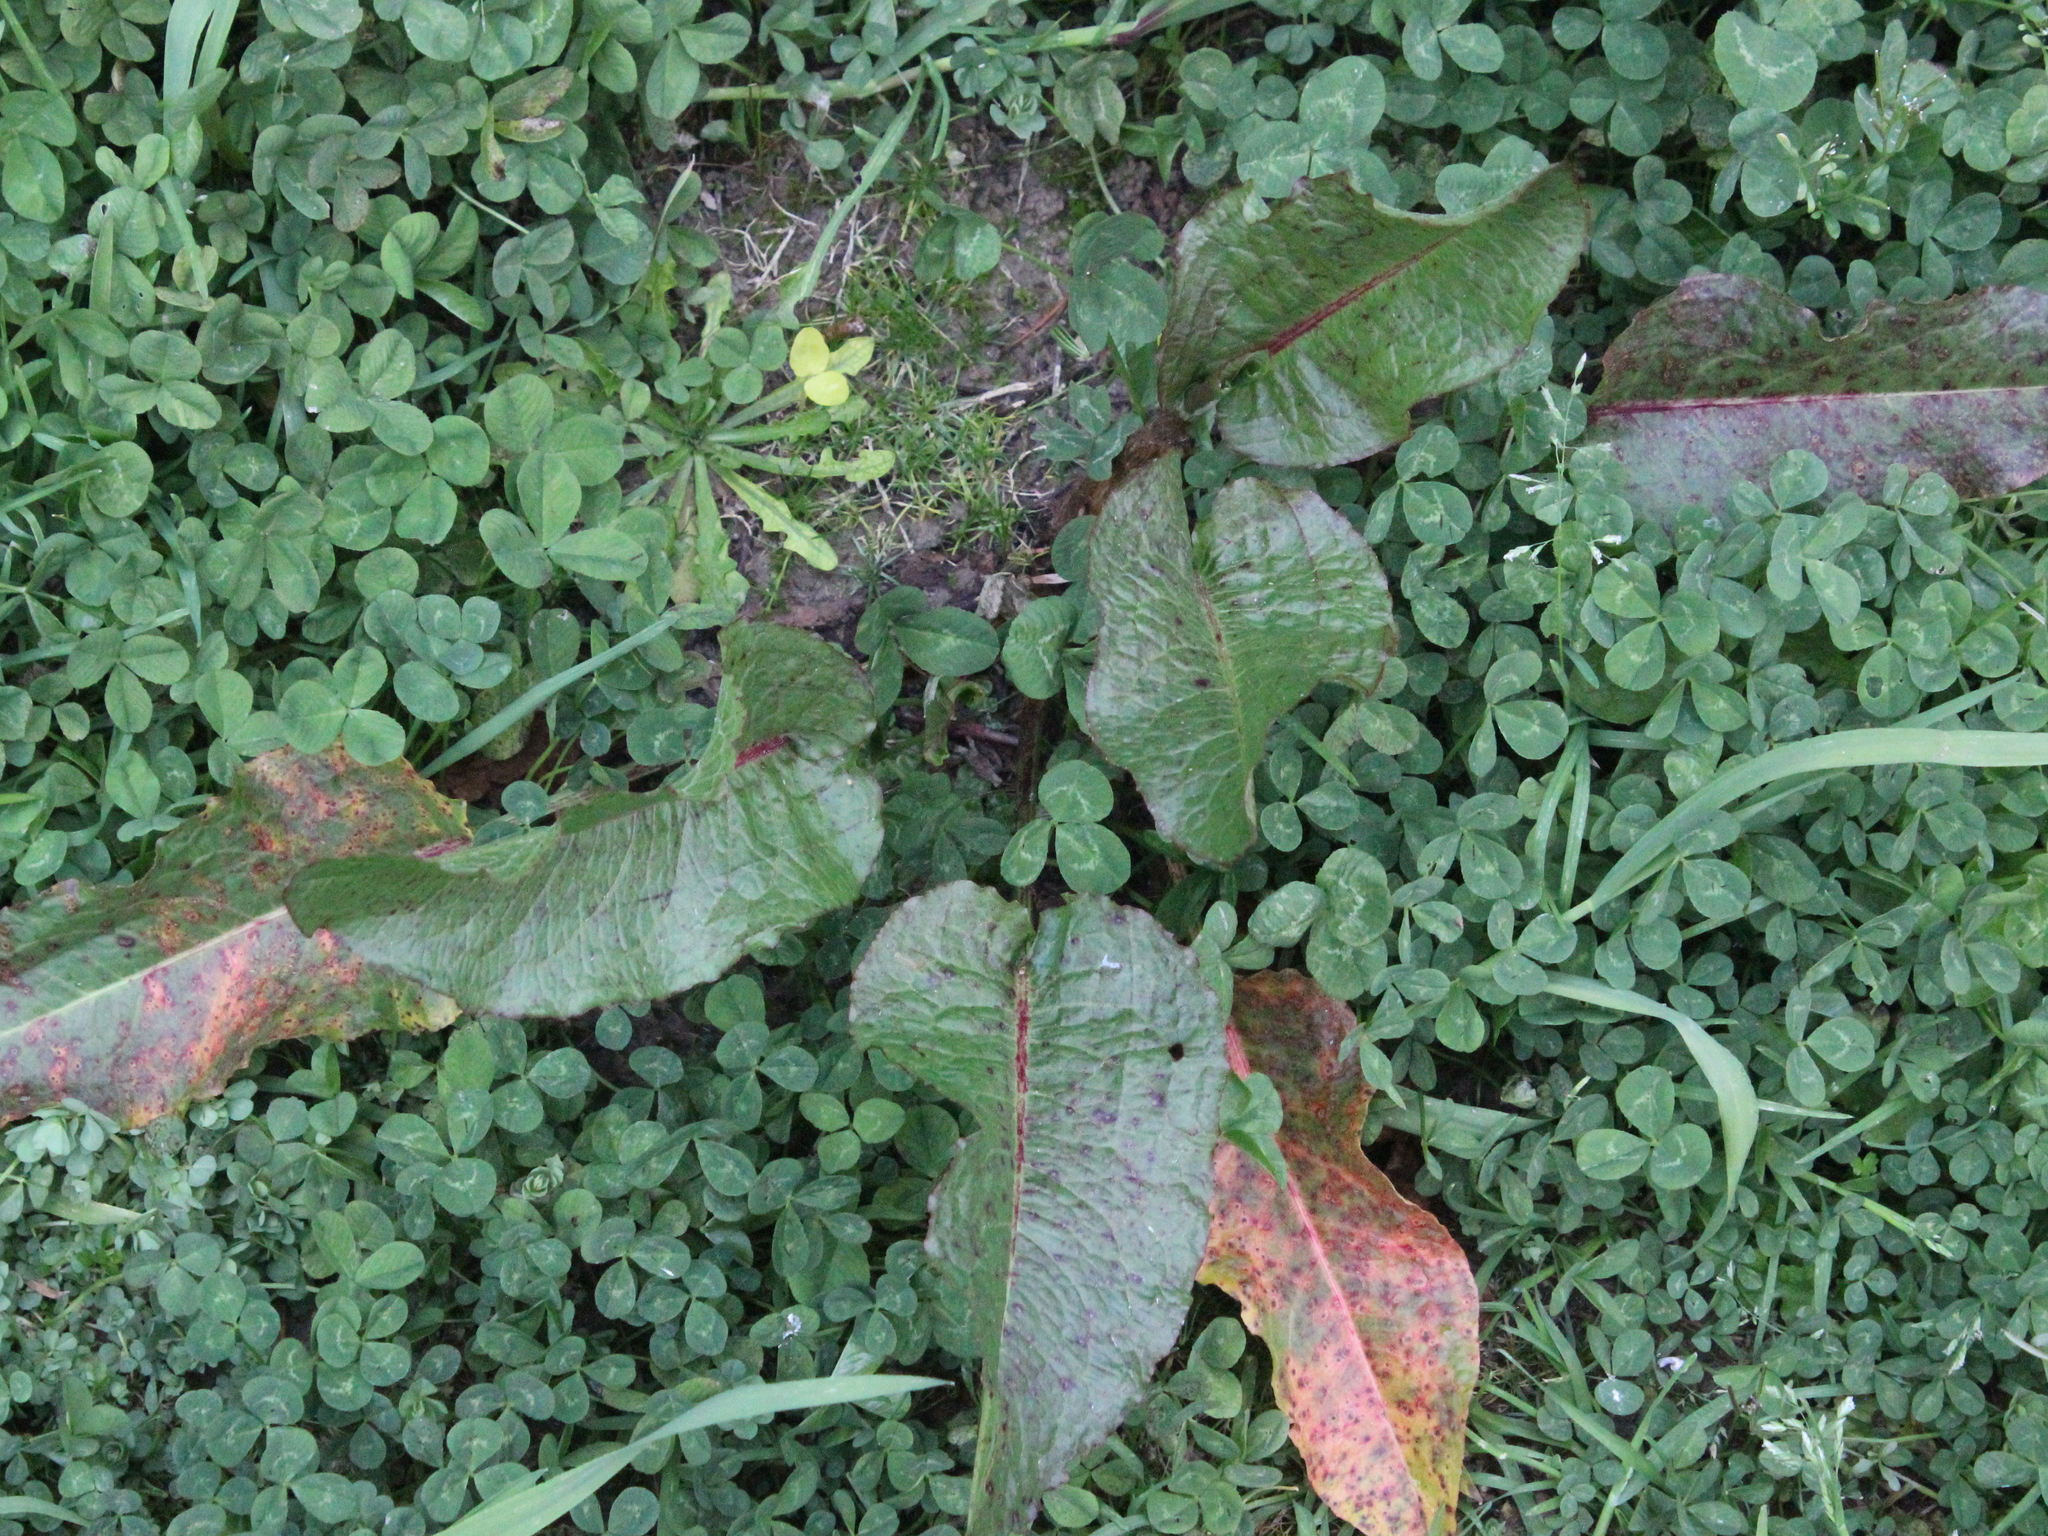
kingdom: Plantae
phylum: Tracheophyta
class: Magnoliopsida
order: Caryophyllales
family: Polygonaceae
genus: Rumex
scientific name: Rumex obtusifolius
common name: Bitter dock
